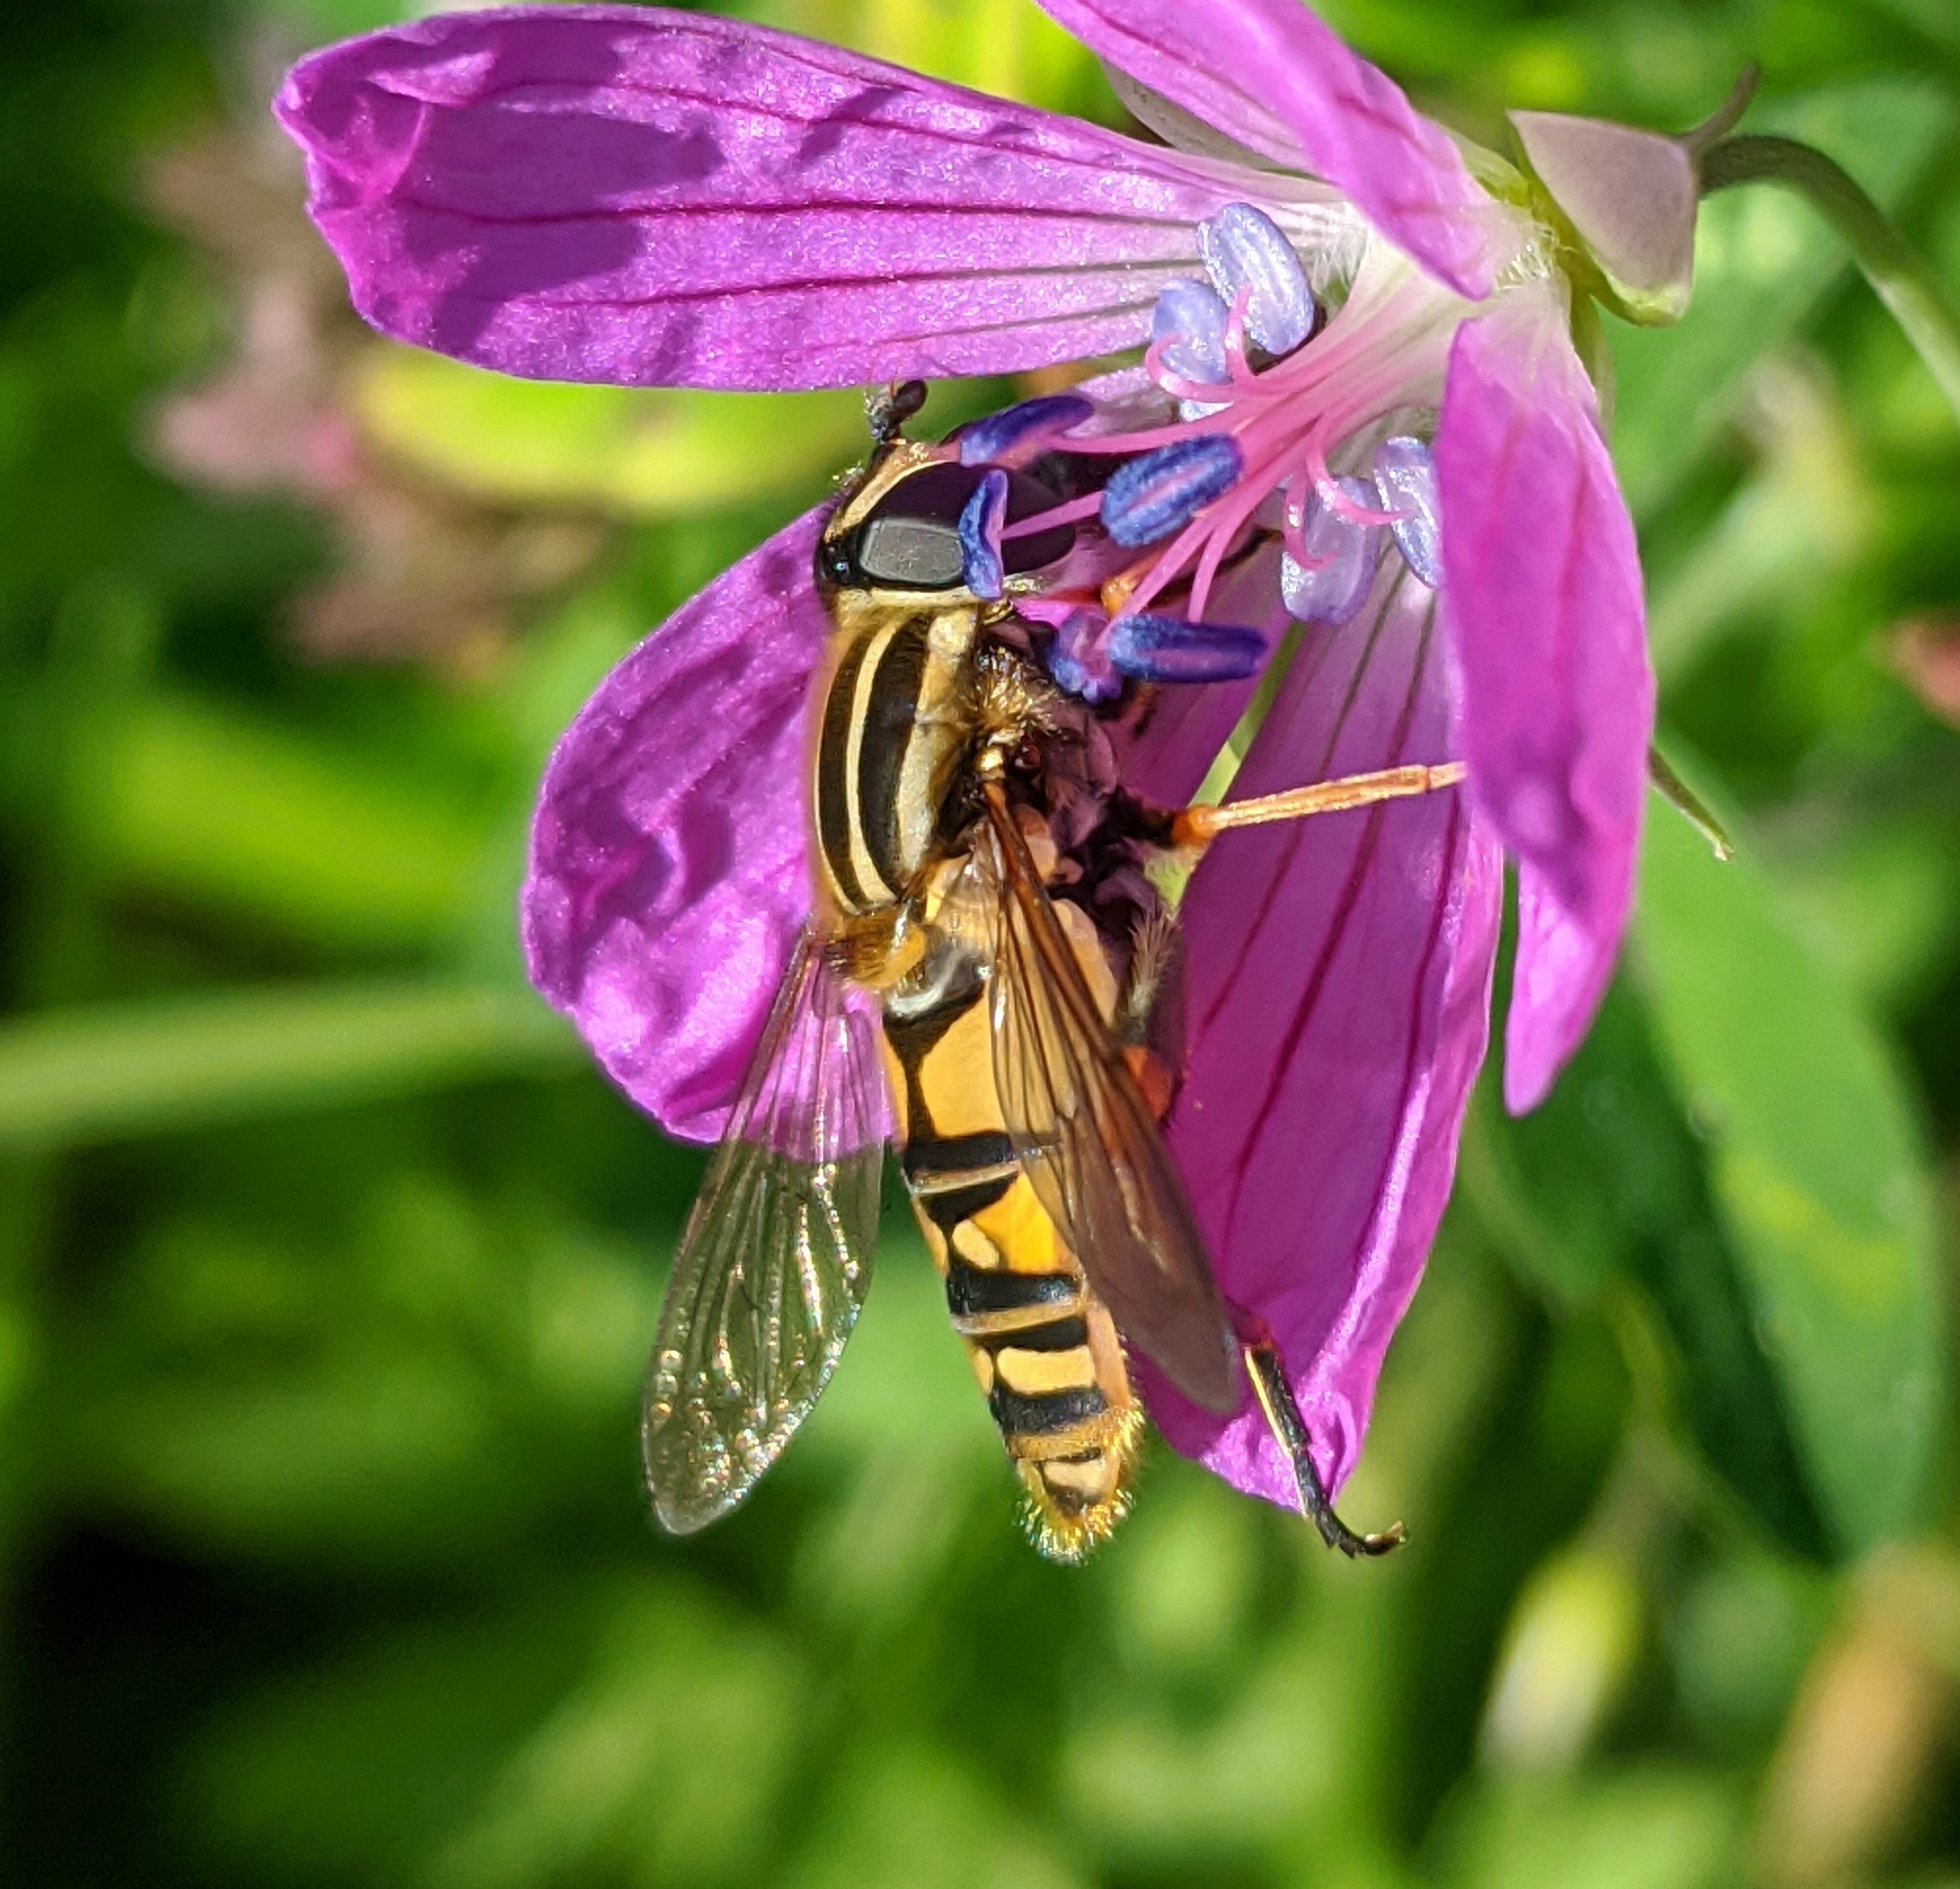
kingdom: Animalia
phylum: Arthropoda
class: Insecta
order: Diptera
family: Syrphidae
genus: Helophilus
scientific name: Helophilus pendulus
